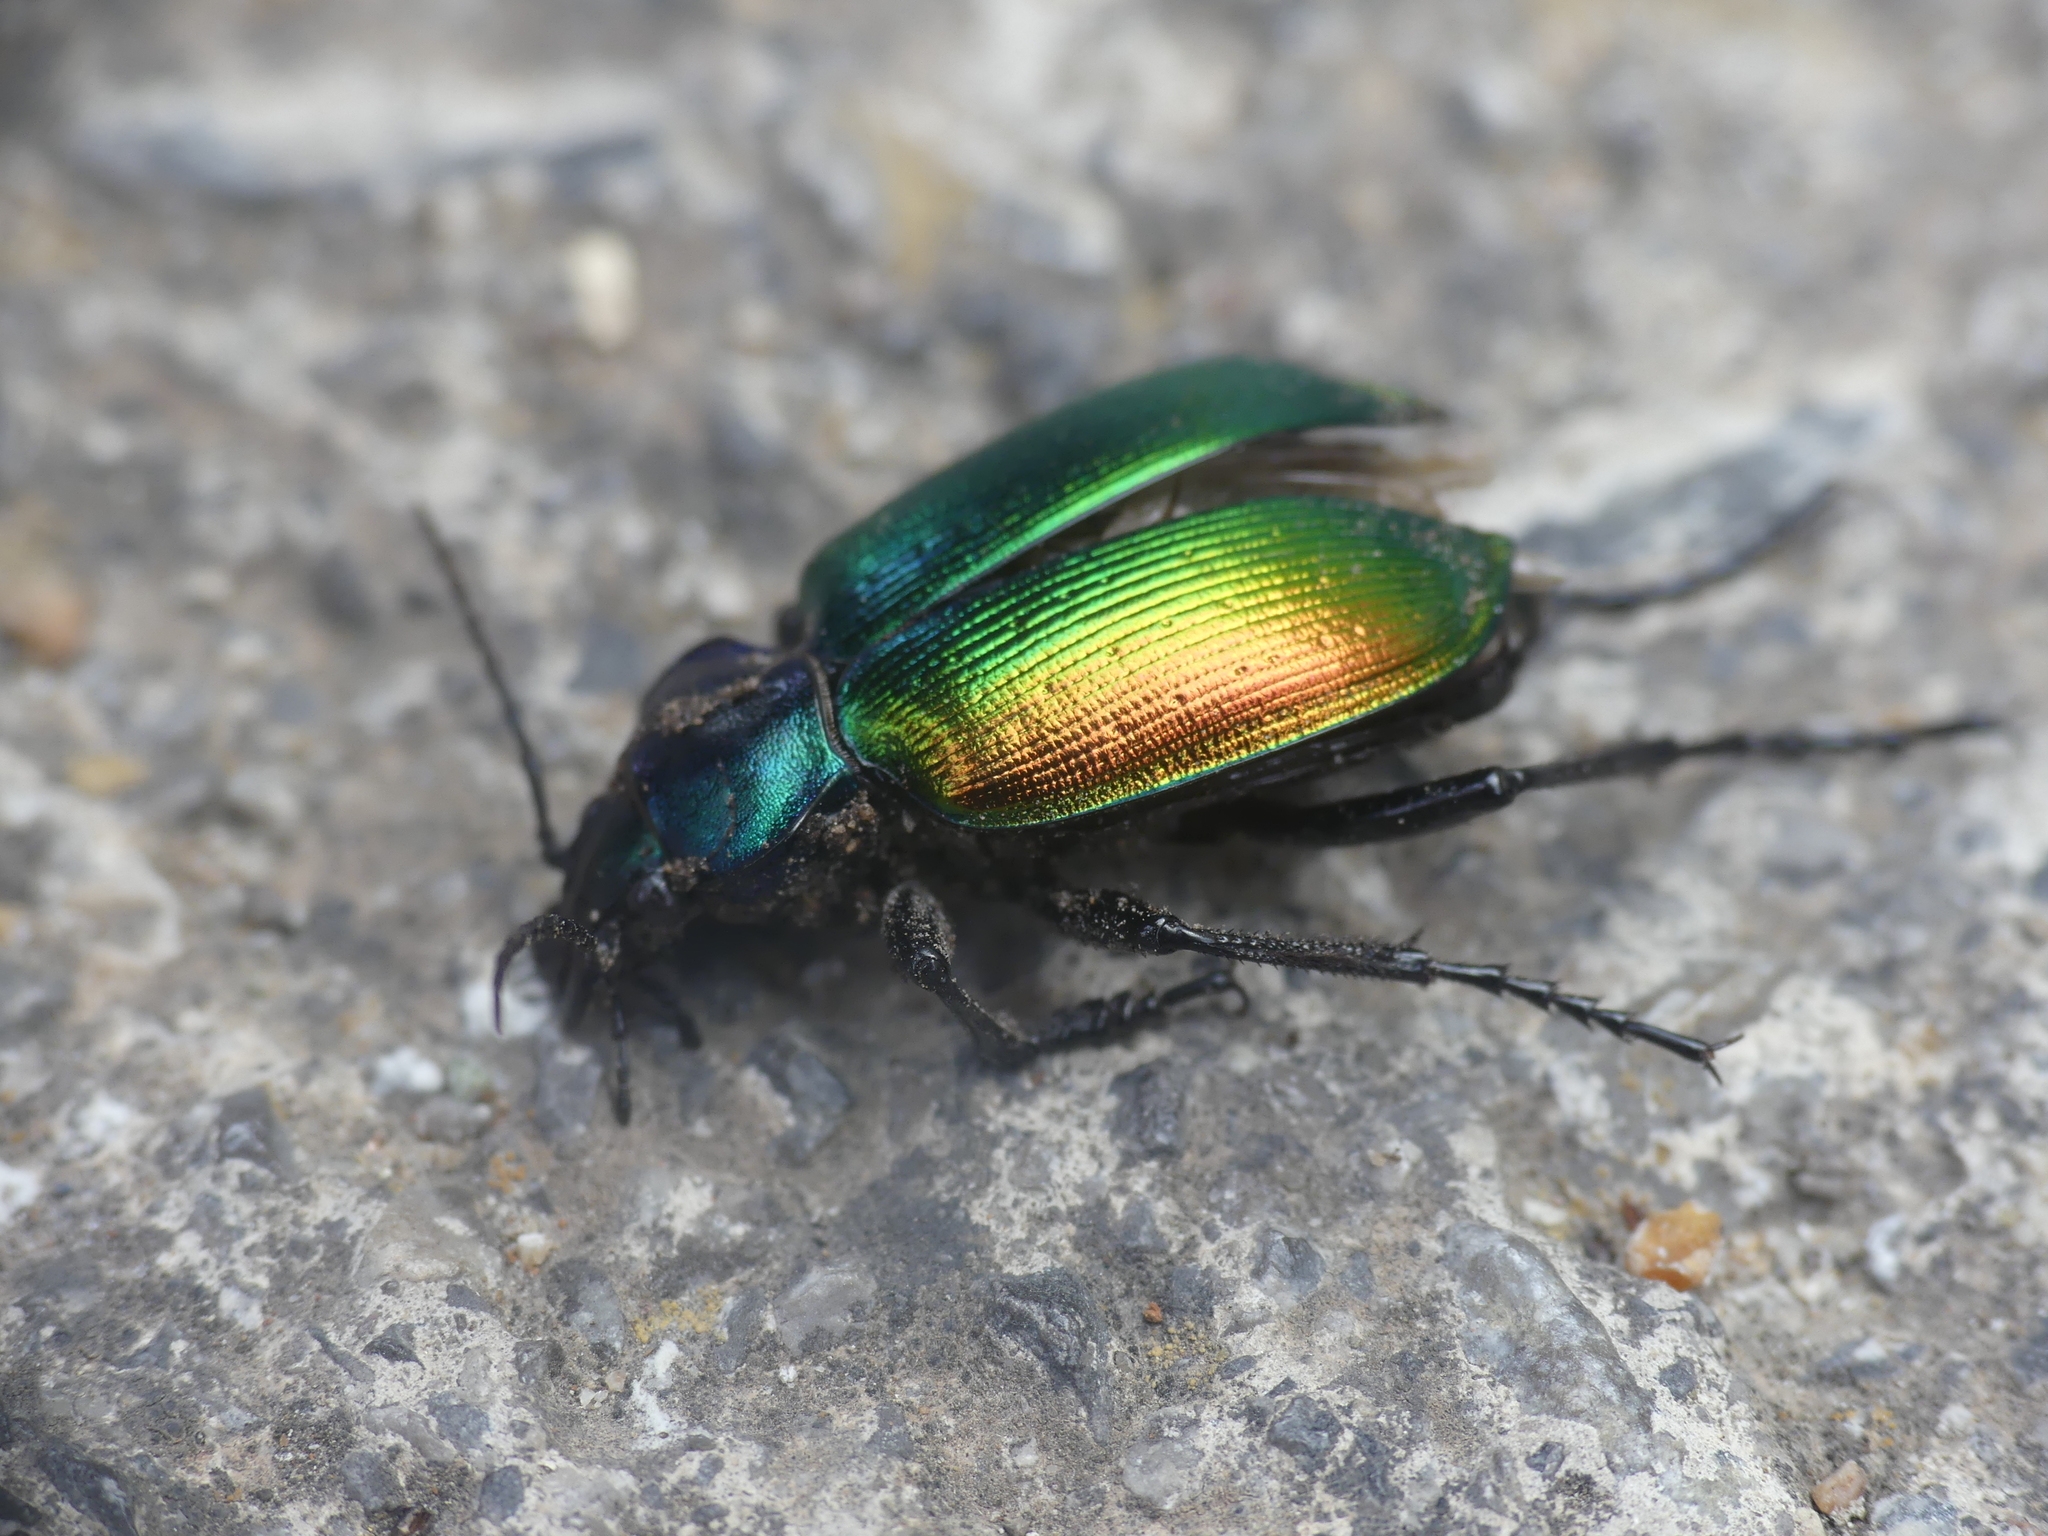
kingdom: Animalia
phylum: Arthropoda
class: Insecta
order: Coleoptera
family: Carabidae
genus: Calosoma
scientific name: Calosoma sycophanta
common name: Forest caterpillar hunter
